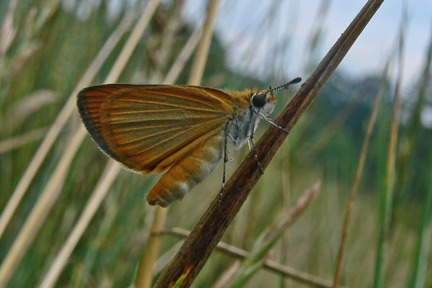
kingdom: Animalia
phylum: Arthropoda
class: Insecta
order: Lepidoptera
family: Hesperiidae
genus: Ancyloxypha
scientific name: Ancyloxypha numitor
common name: Least skipper
